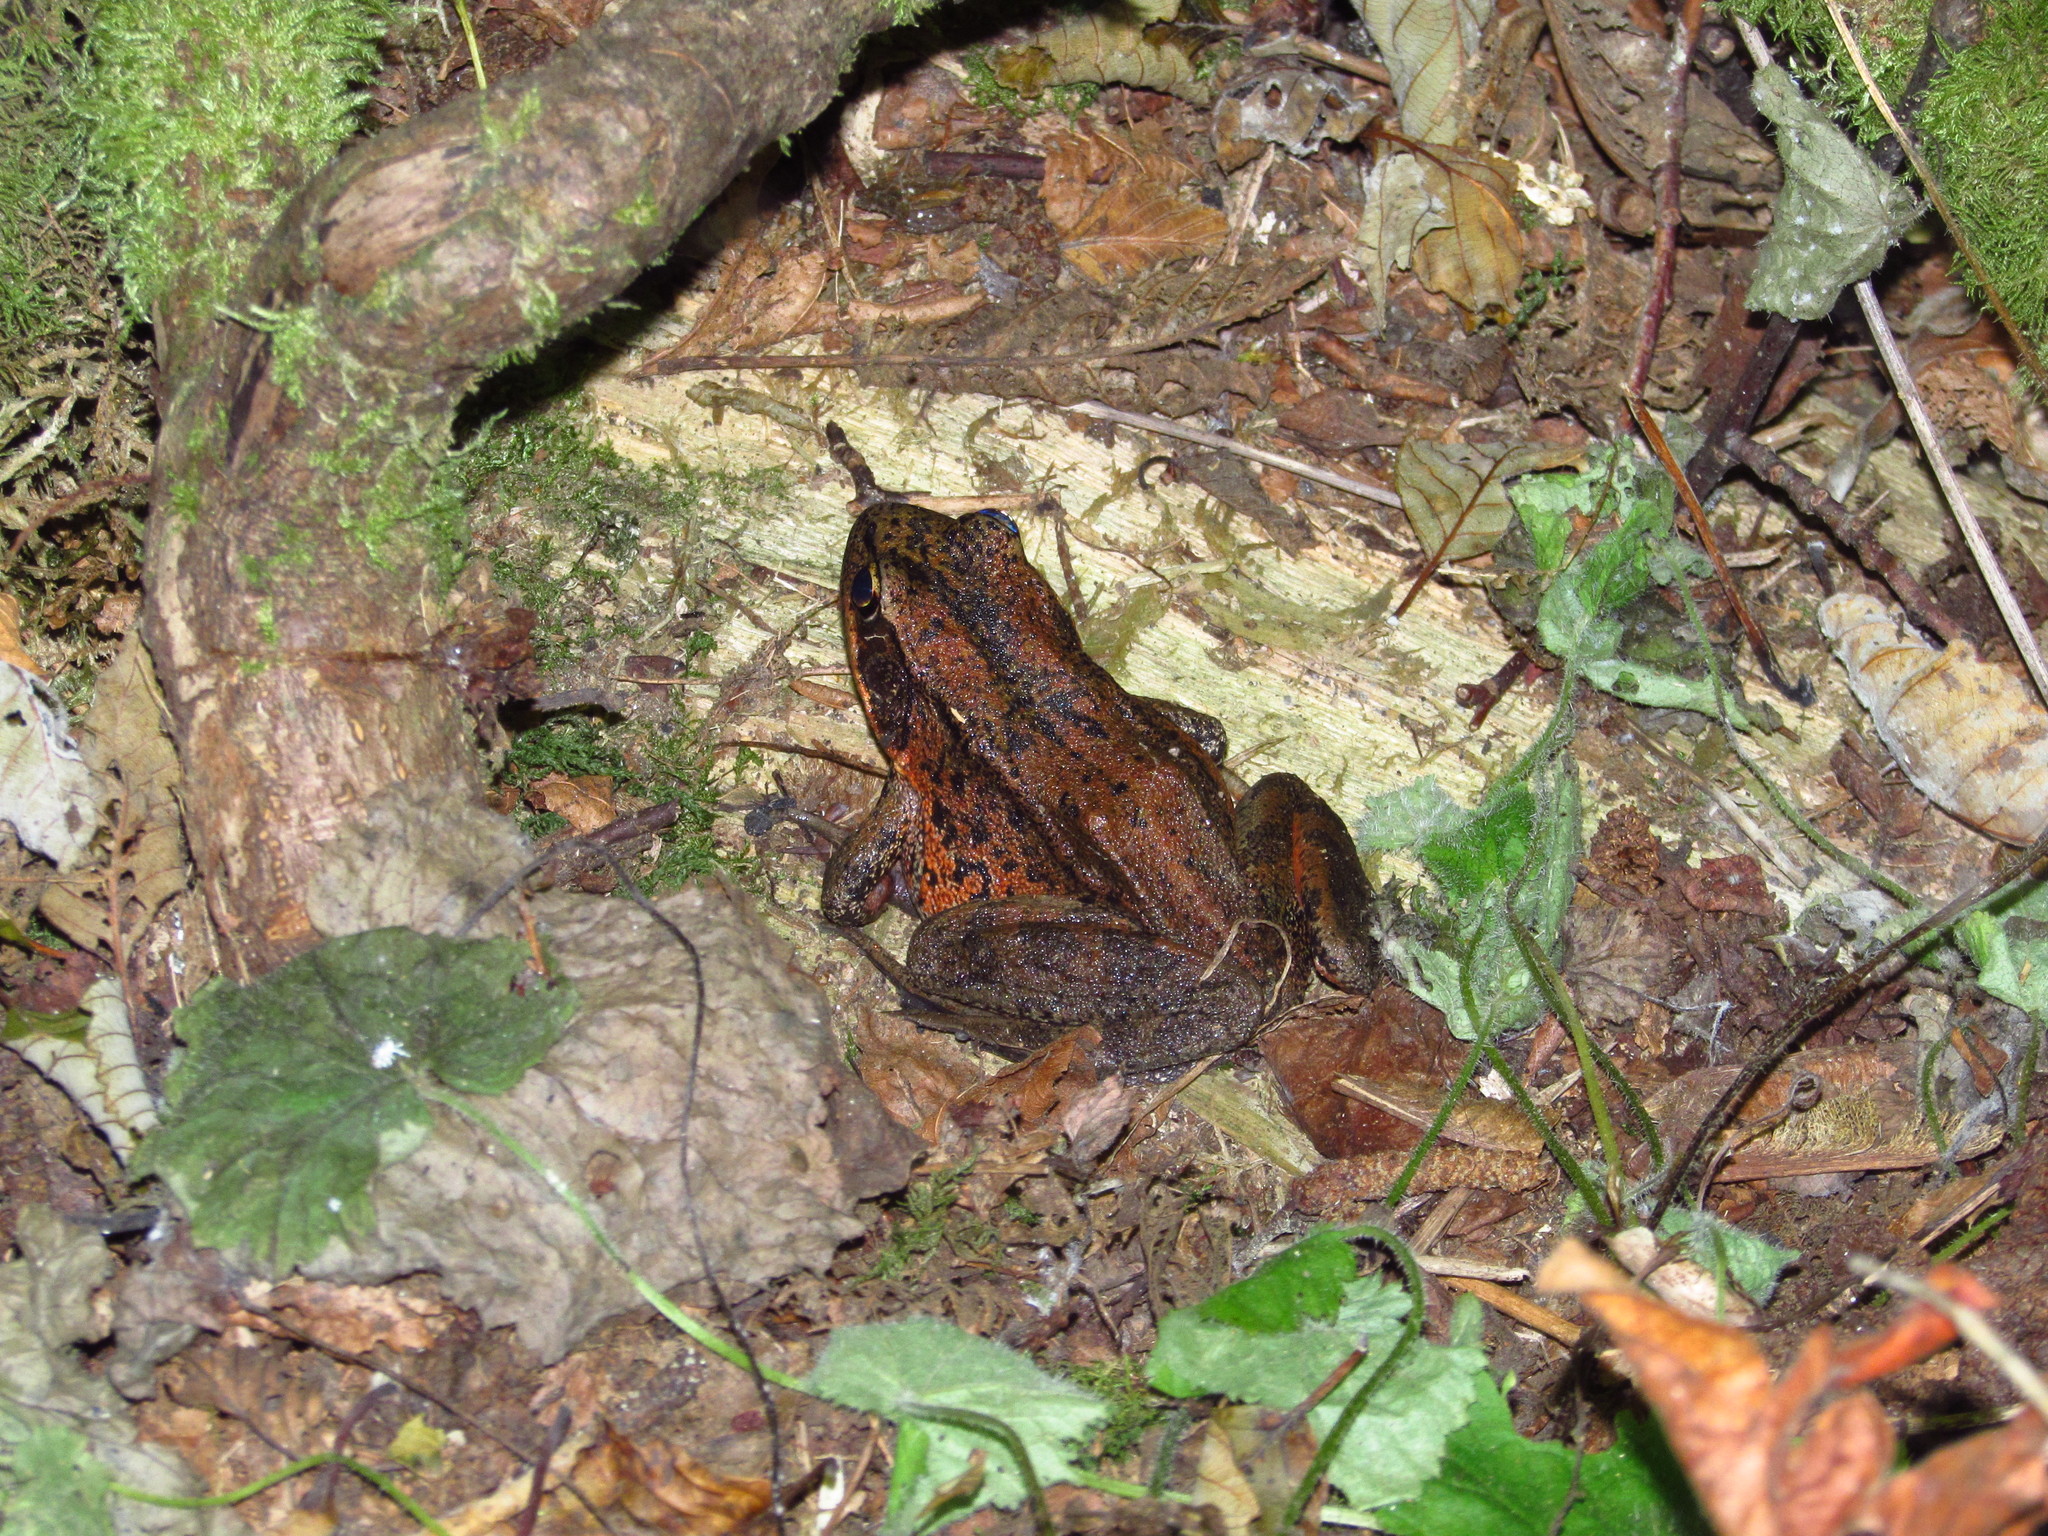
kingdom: Animalia
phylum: Chordata
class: Amphibia
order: Anura
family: Ranidae
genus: Rana
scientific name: Rana aurora
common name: Red-legged frog
